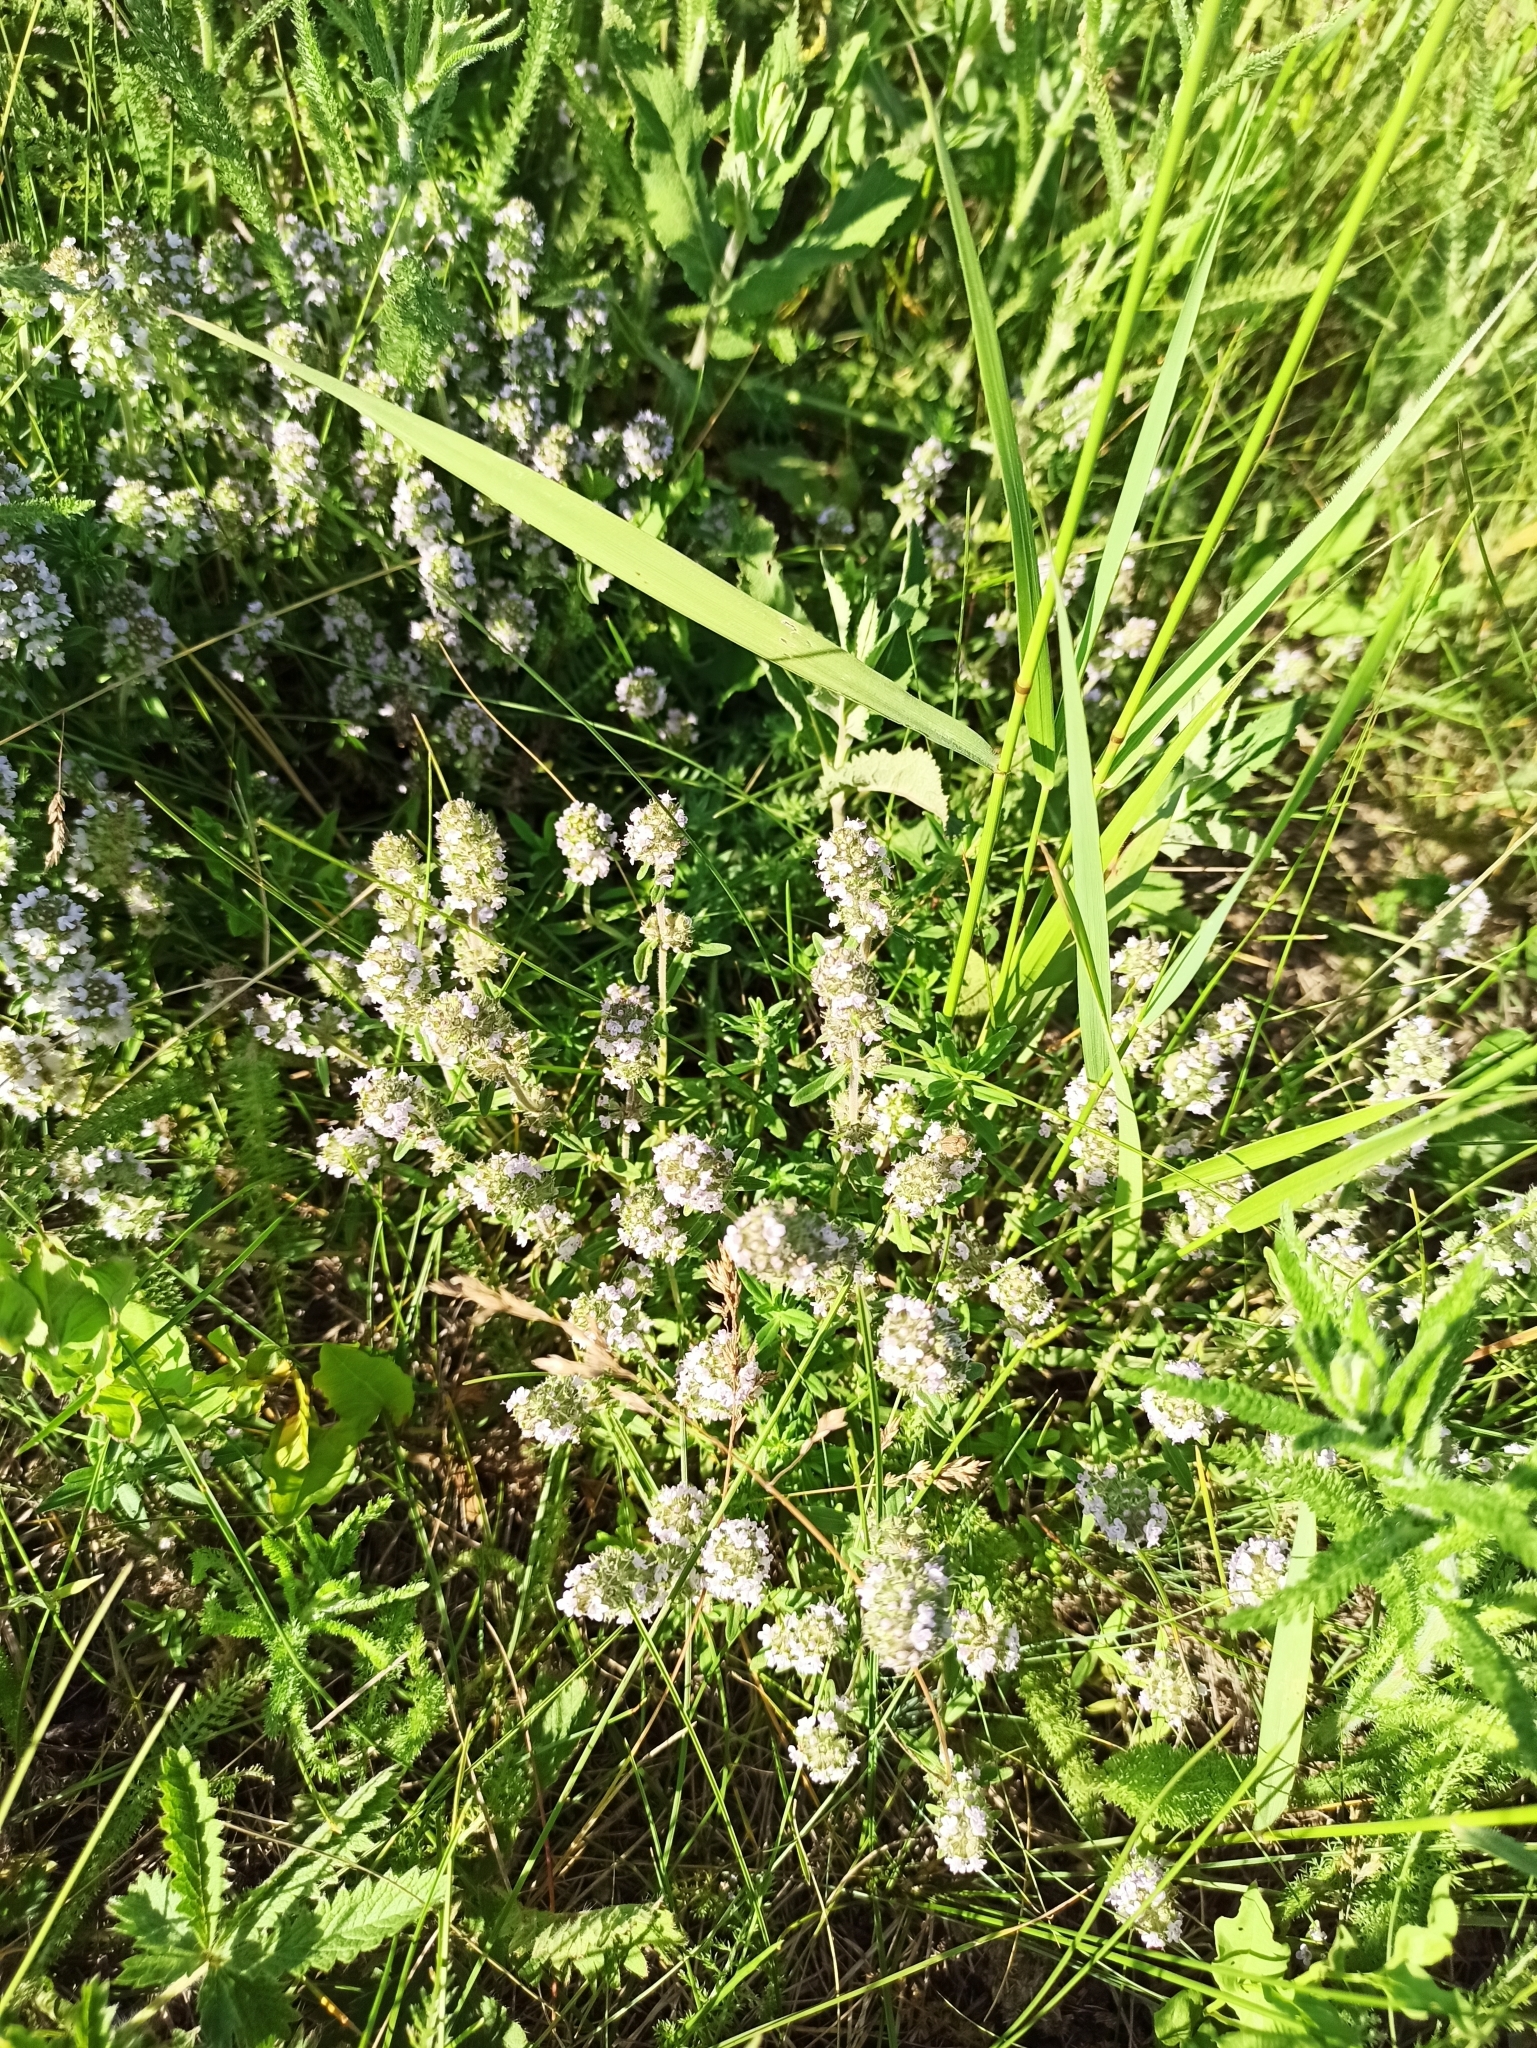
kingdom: Plantae
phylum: Tracheophyta
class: Magnoliopsida
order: Lamiales
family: Lamiaceae
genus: Thymus
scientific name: Thymus pannonicus
